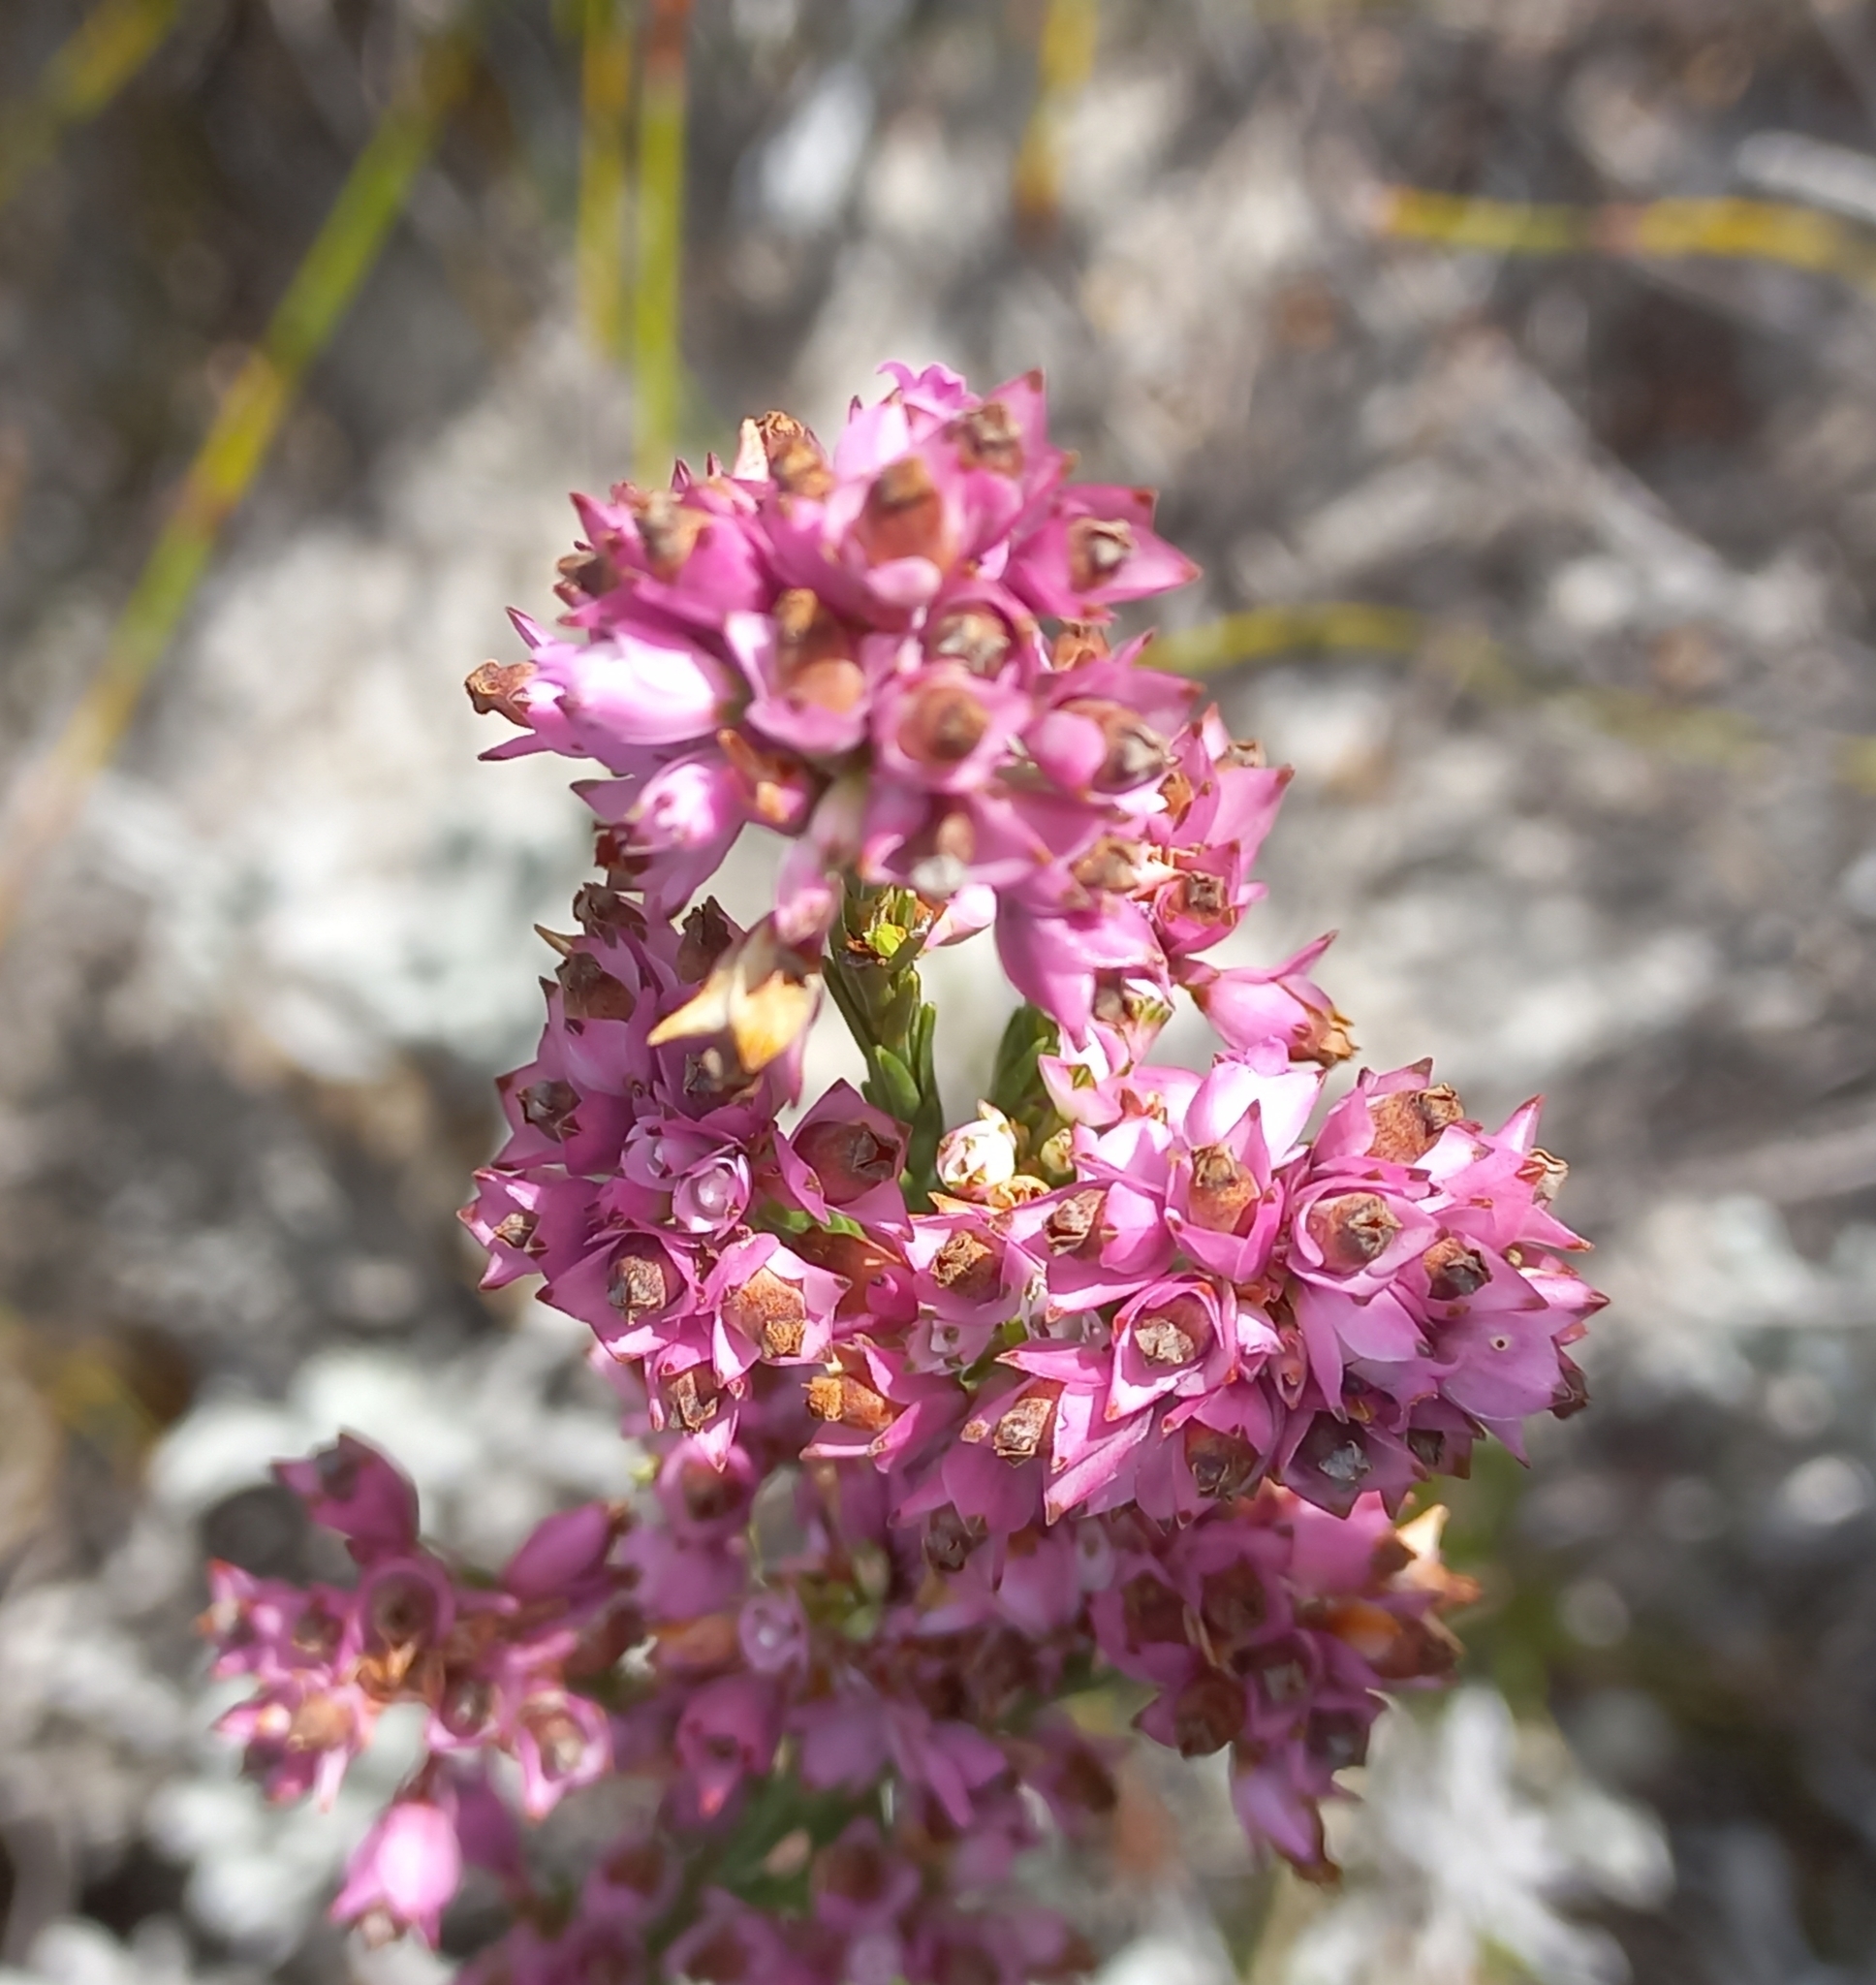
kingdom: Plantae
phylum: Tracheophyta
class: Magnoliopsida
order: Ericales
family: Ericaceae
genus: Erica
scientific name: Erica corifolia
